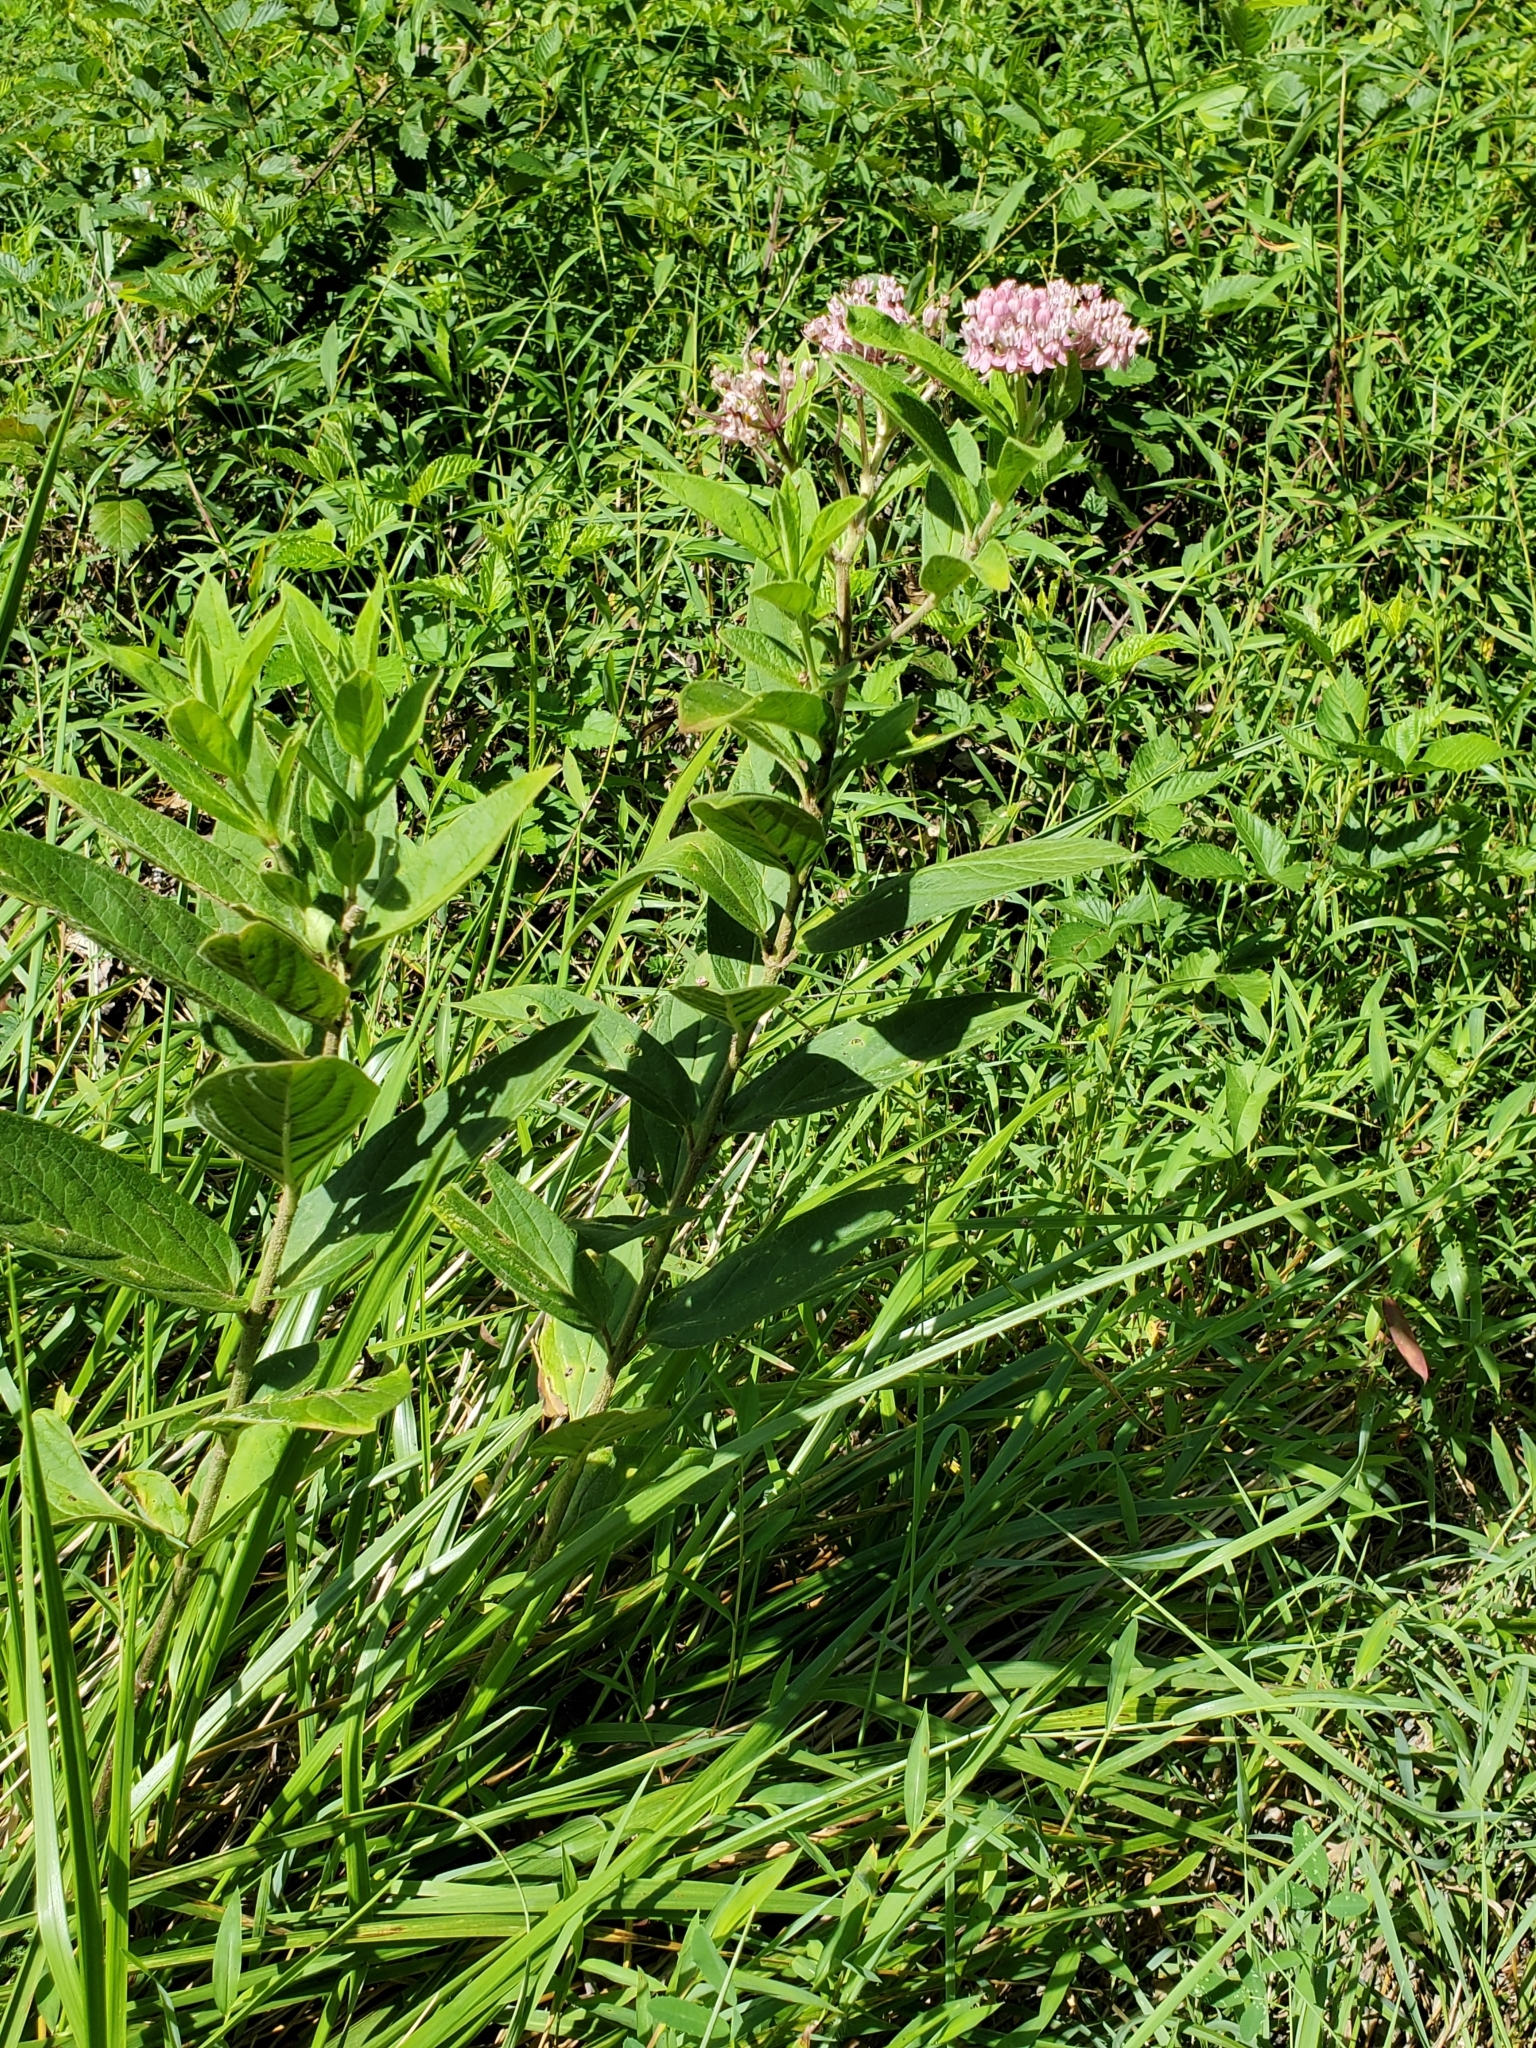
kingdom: Plantae
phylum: Tracheophyta
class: Magnoliopsida
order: Gentianales
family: Apocynaceae
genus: Asclepias
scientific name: Asclepias incarnata
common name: Swamp milkweed
